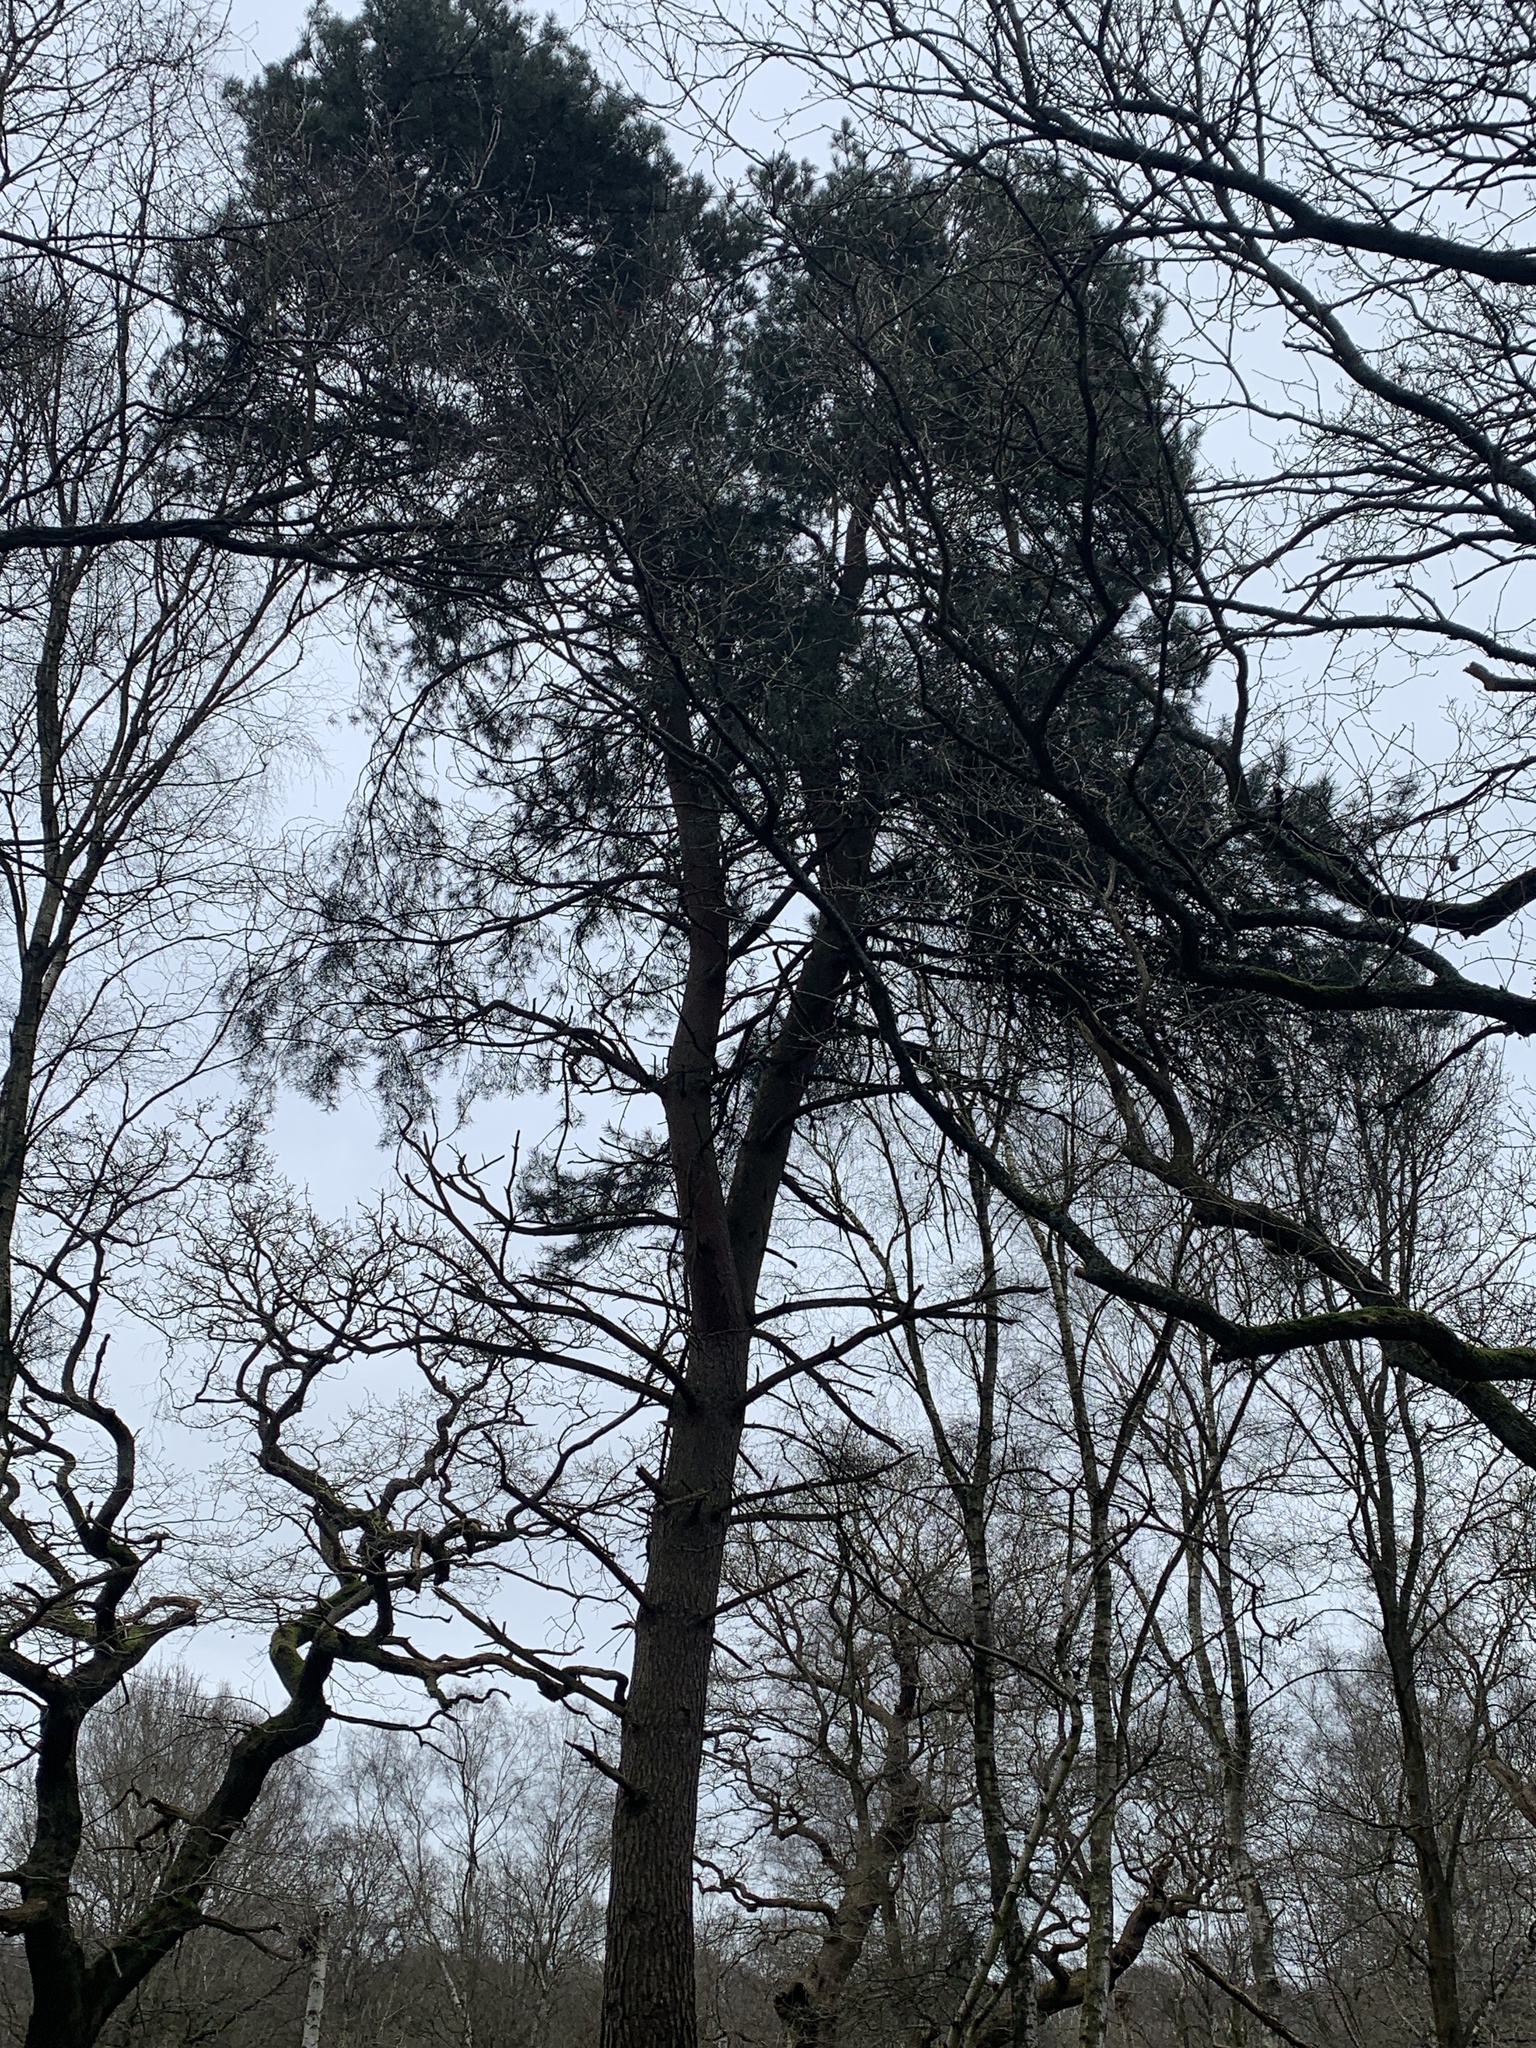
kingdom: Plantae
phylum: Tracheophyta
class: Pinopsida
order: Pinales
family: Pinaceae
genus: Pinus
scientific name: Pinus sylvestris
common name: Scots pine
